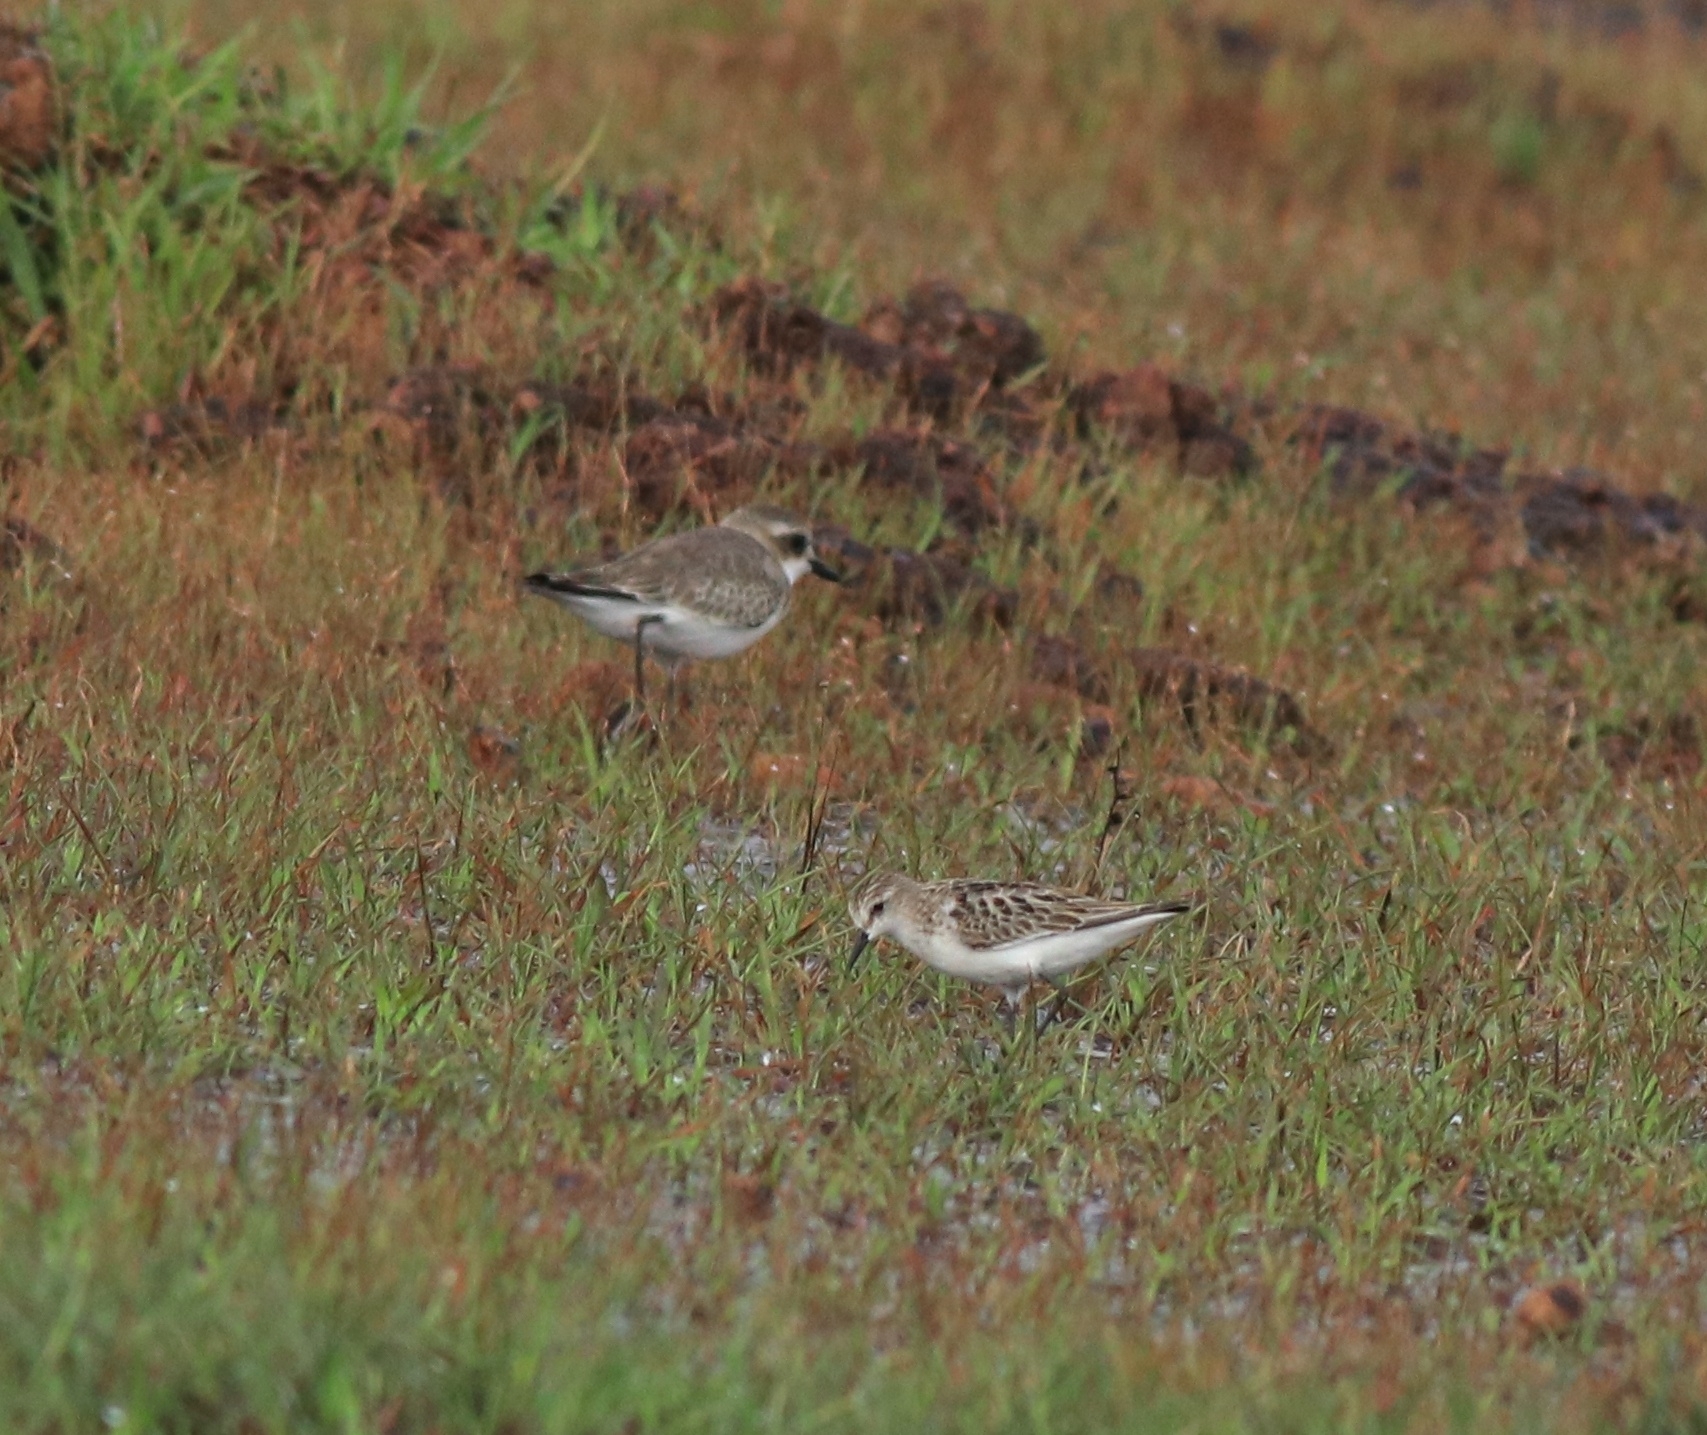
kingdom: Animalia
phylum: Chordata
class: Aves
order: Charadriiformes
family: Scolopacidae
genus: Calidris
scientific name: Calidris minuta
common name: Little stint
